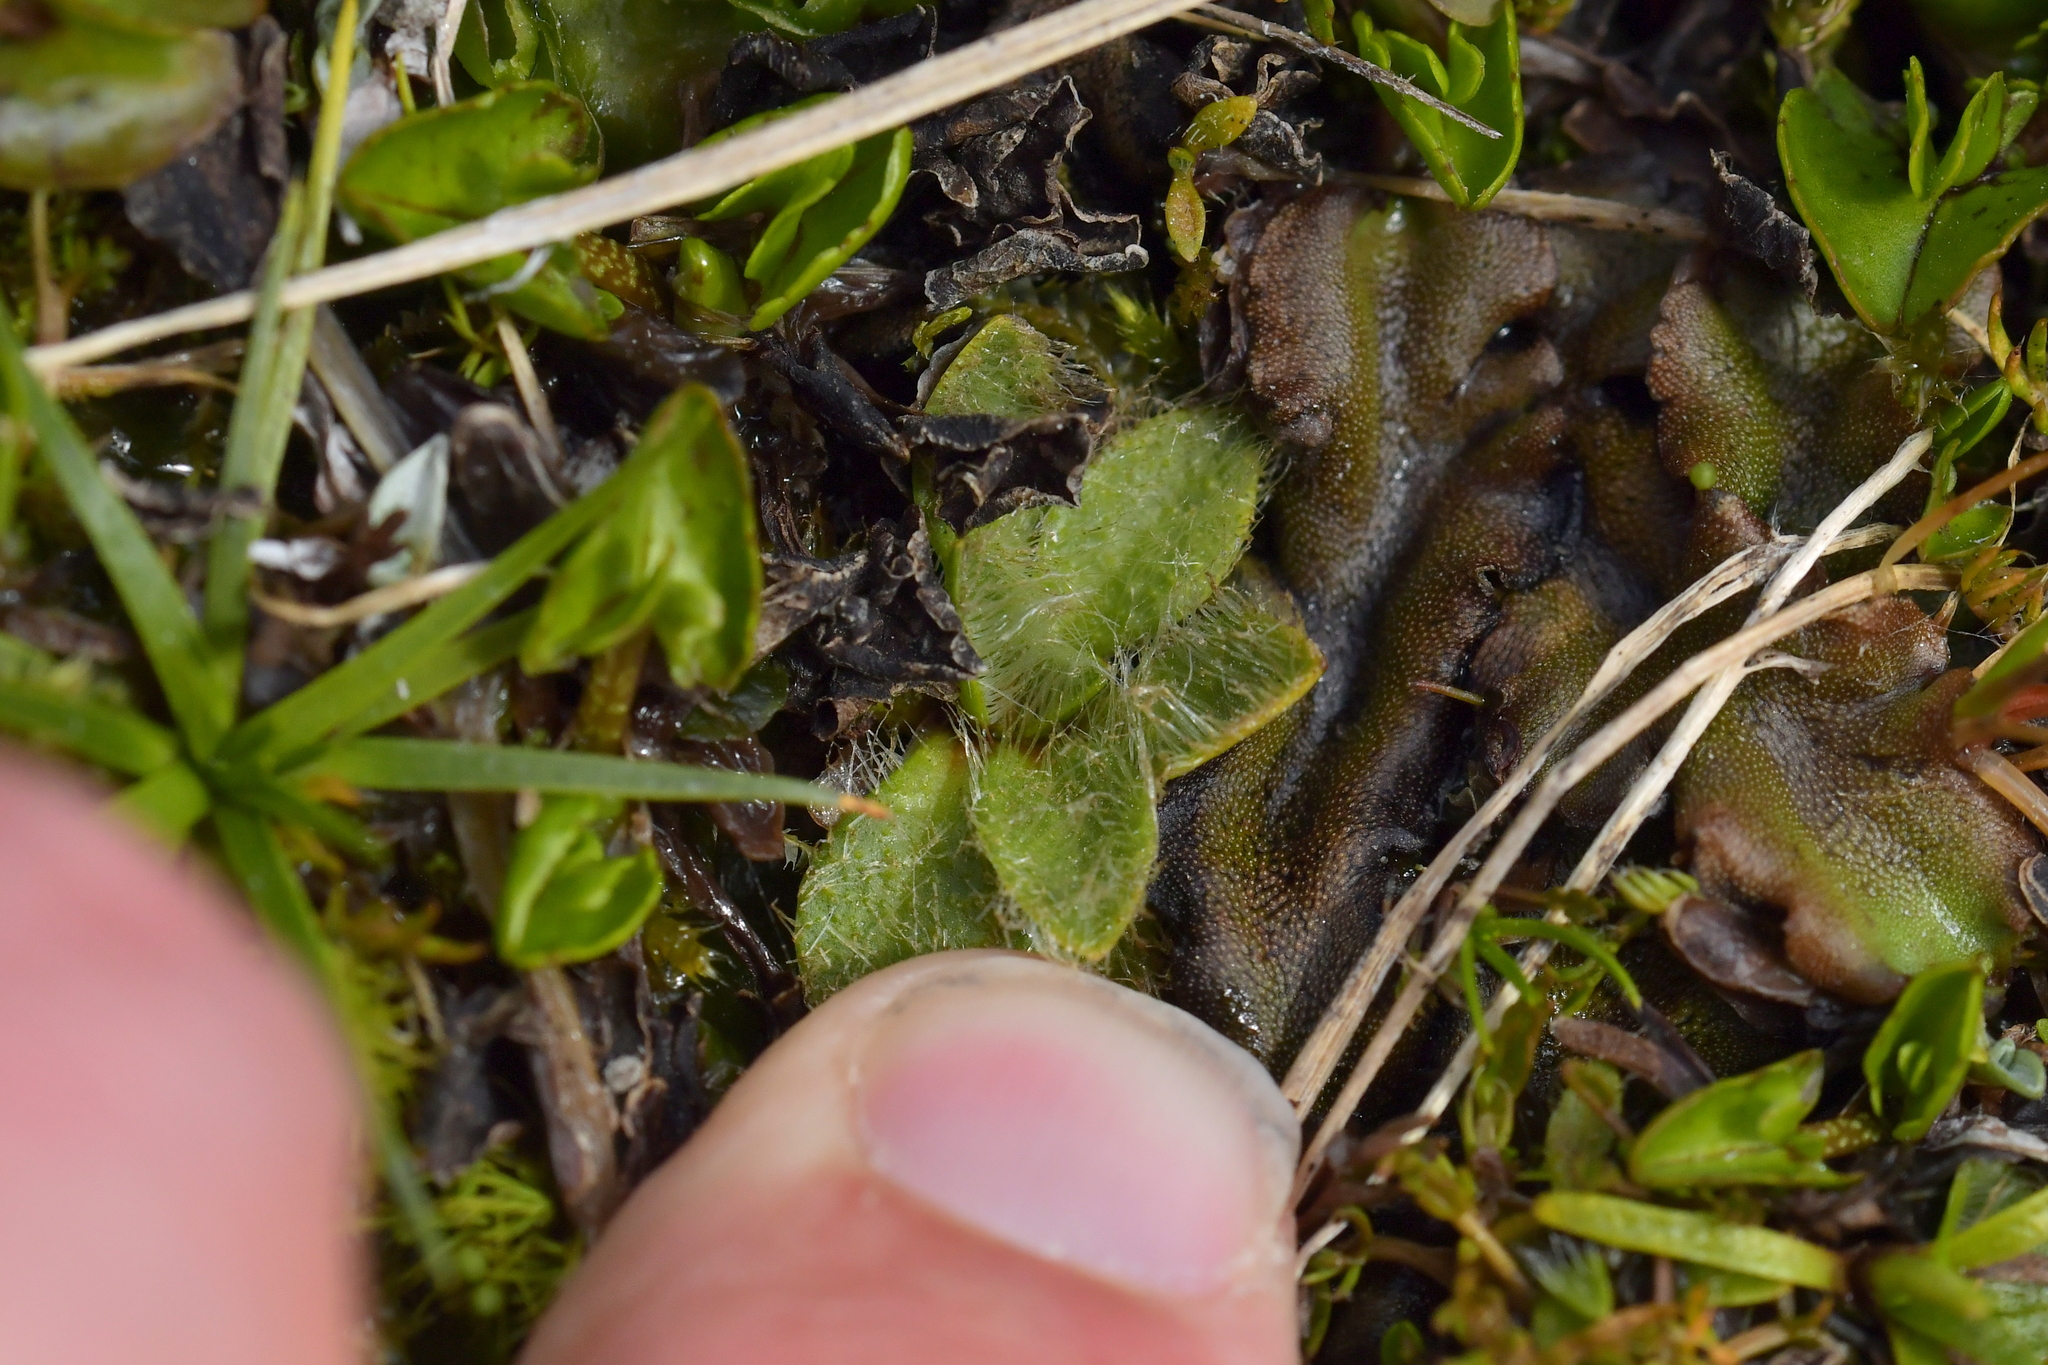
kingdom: Plantae
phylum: Tracheophyta
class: Magnoliopsida
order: Lamiales
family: Plantaginaceae
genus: Plantago
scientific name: Plantago lanigera
